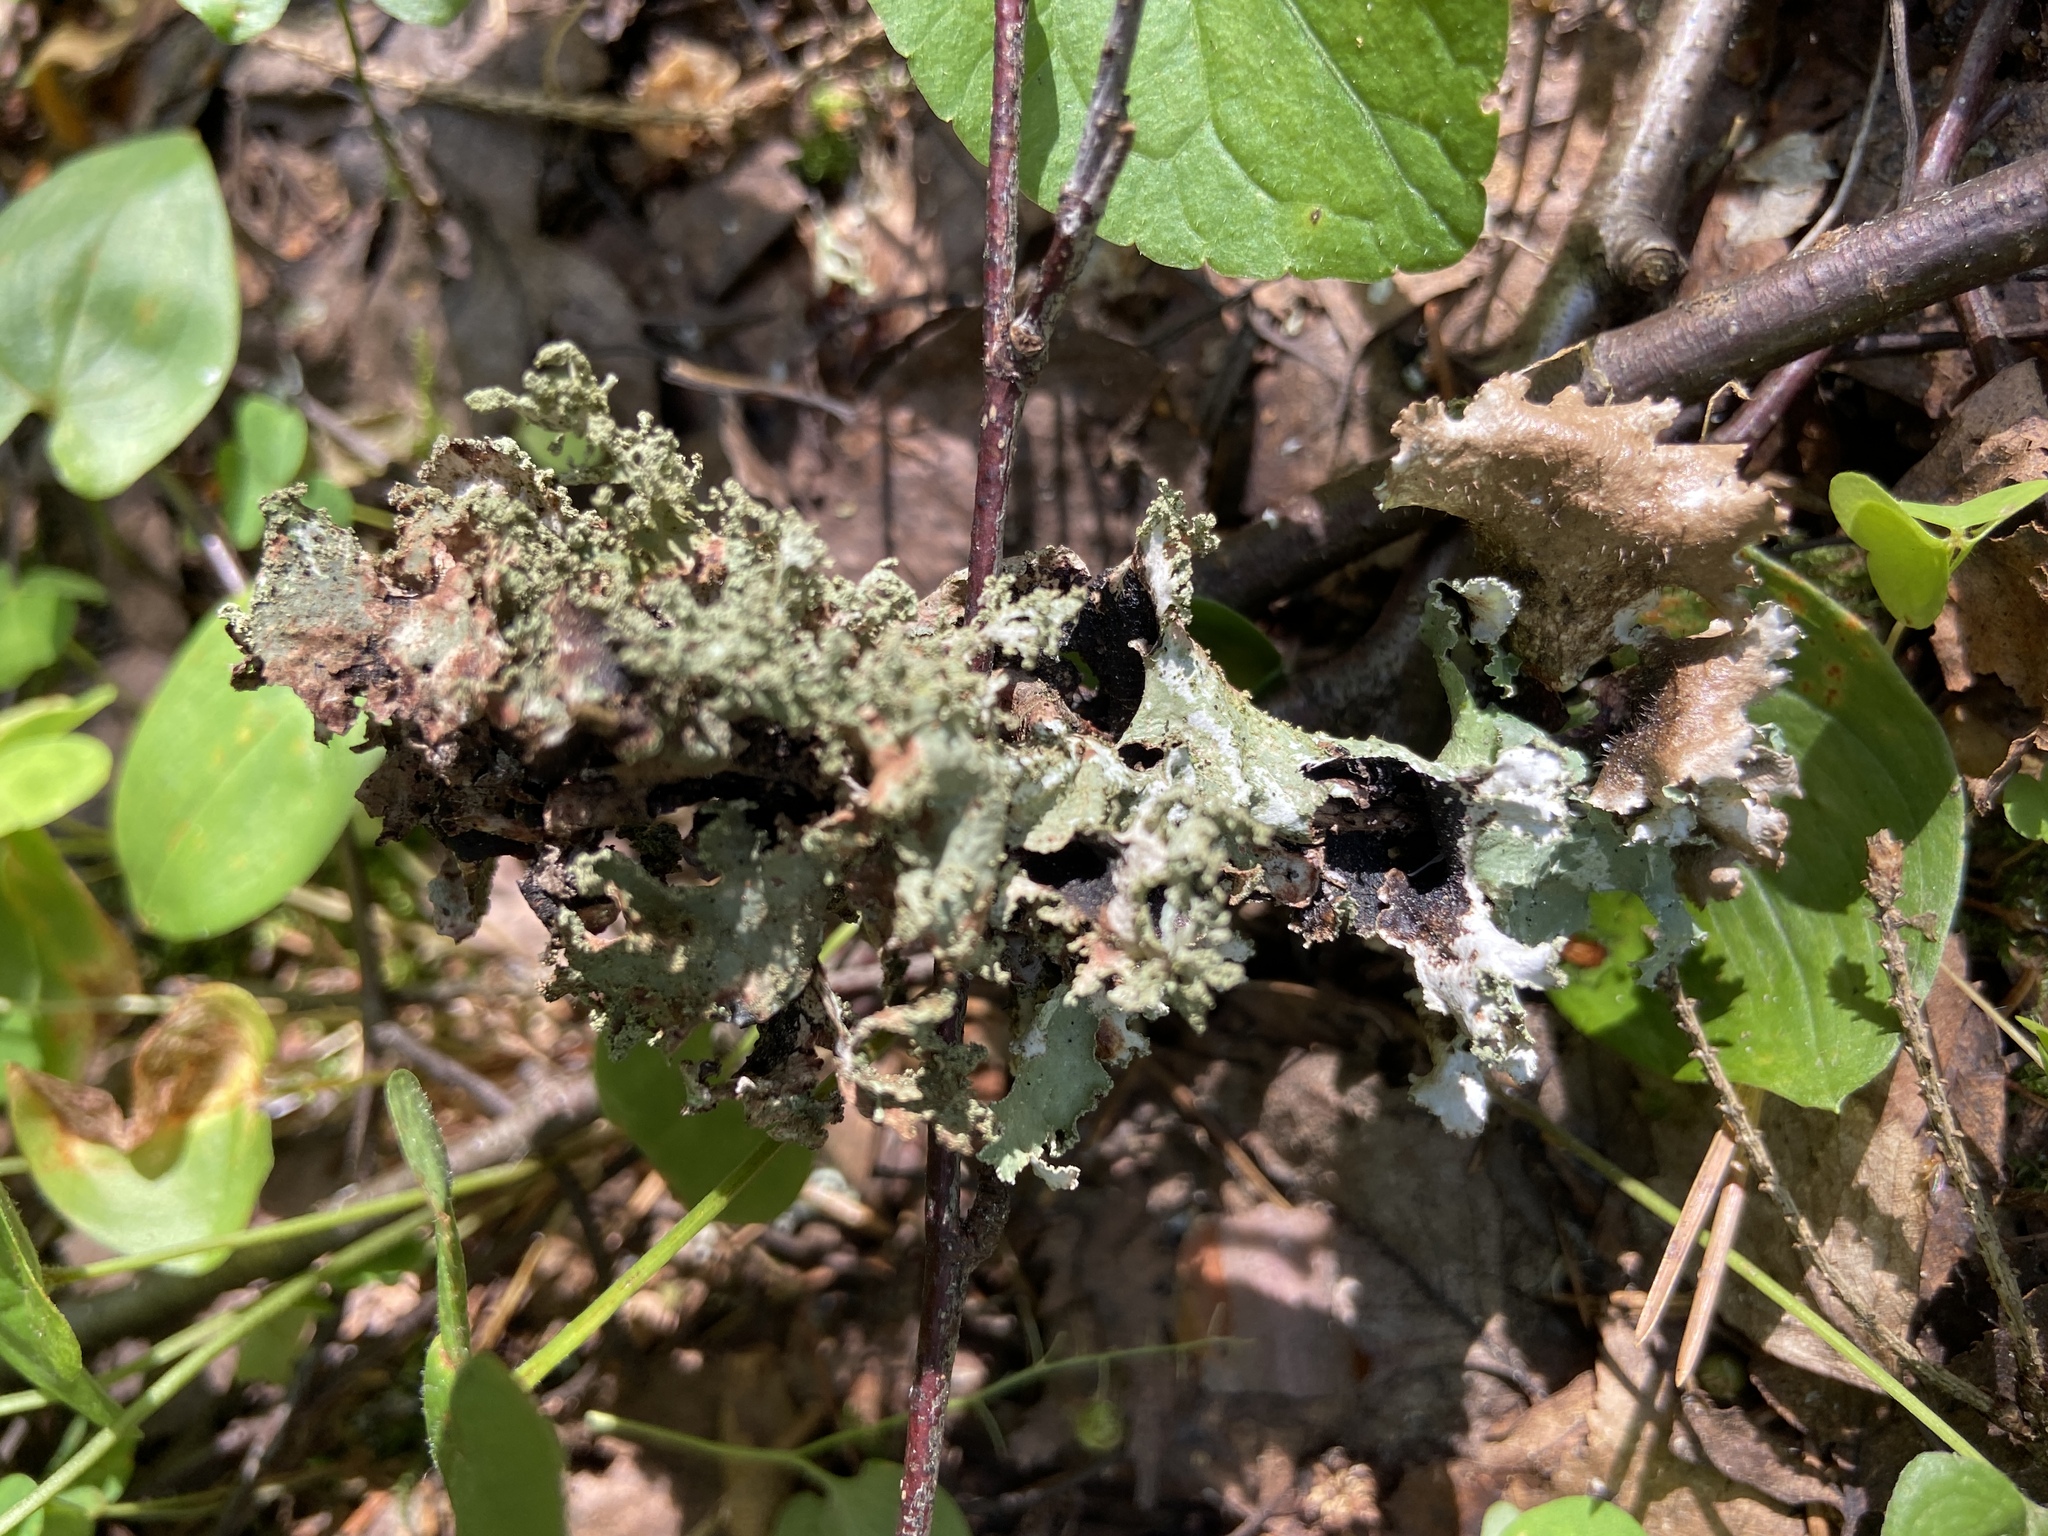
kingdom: Fungi
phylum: Ascomycota
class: Lecanoromycetes
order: Lecanorales
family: Parmeliaceae
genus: Platismatia
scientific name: Platismatia glauca
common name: Varied rag lichen
